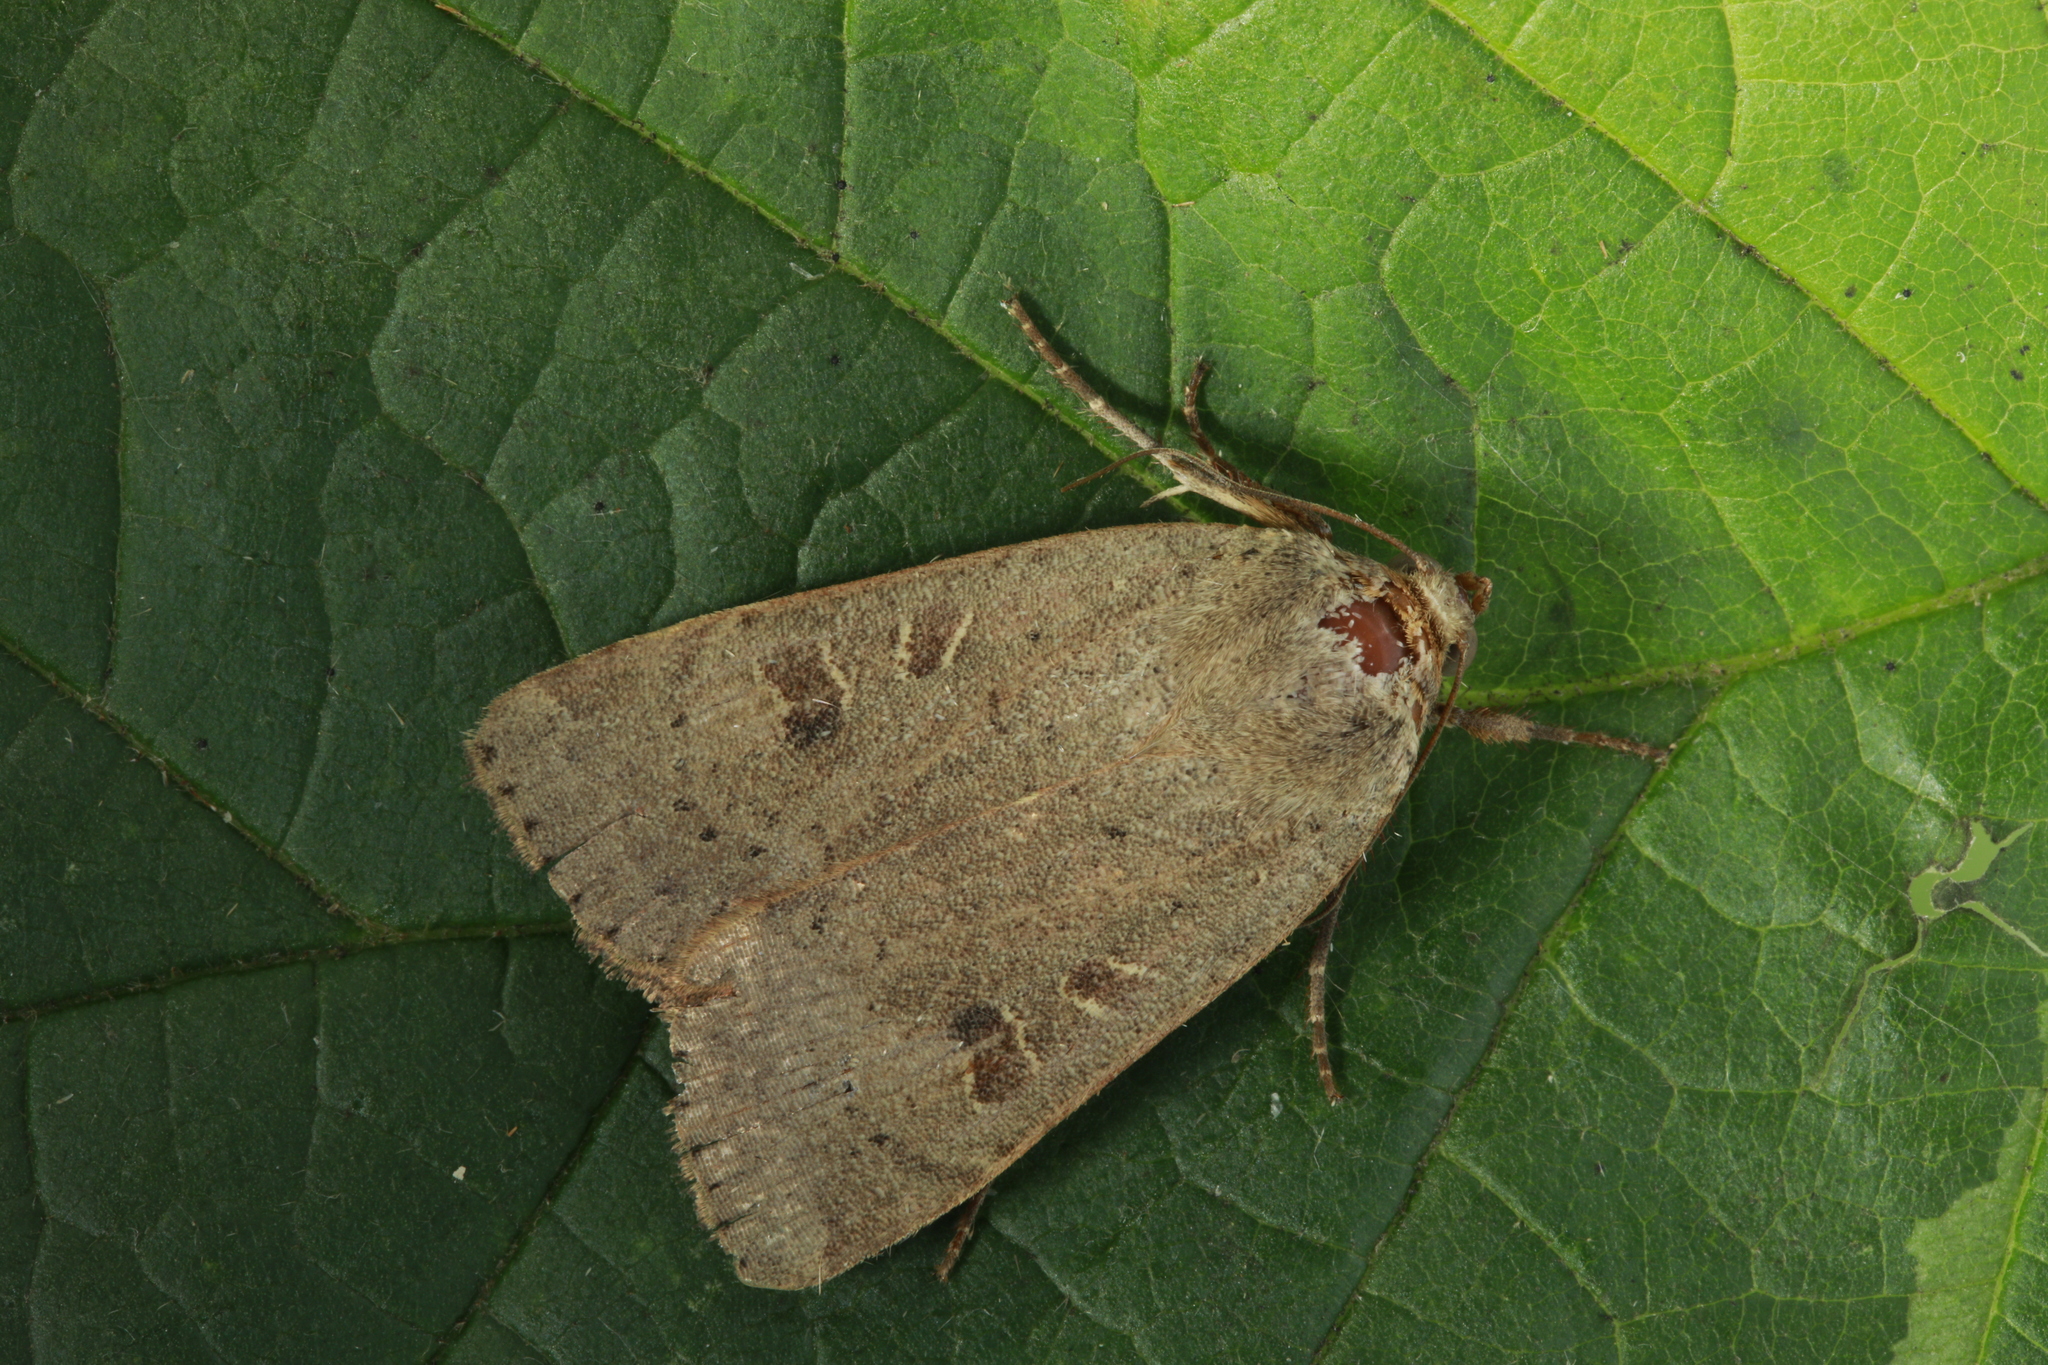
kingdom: Animalia
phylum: Arthropoda
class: Insecta
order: Lepidoptera
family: Noctuidae
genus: Noctua
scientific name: Noctua comes
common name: Lesser yellow underwing
